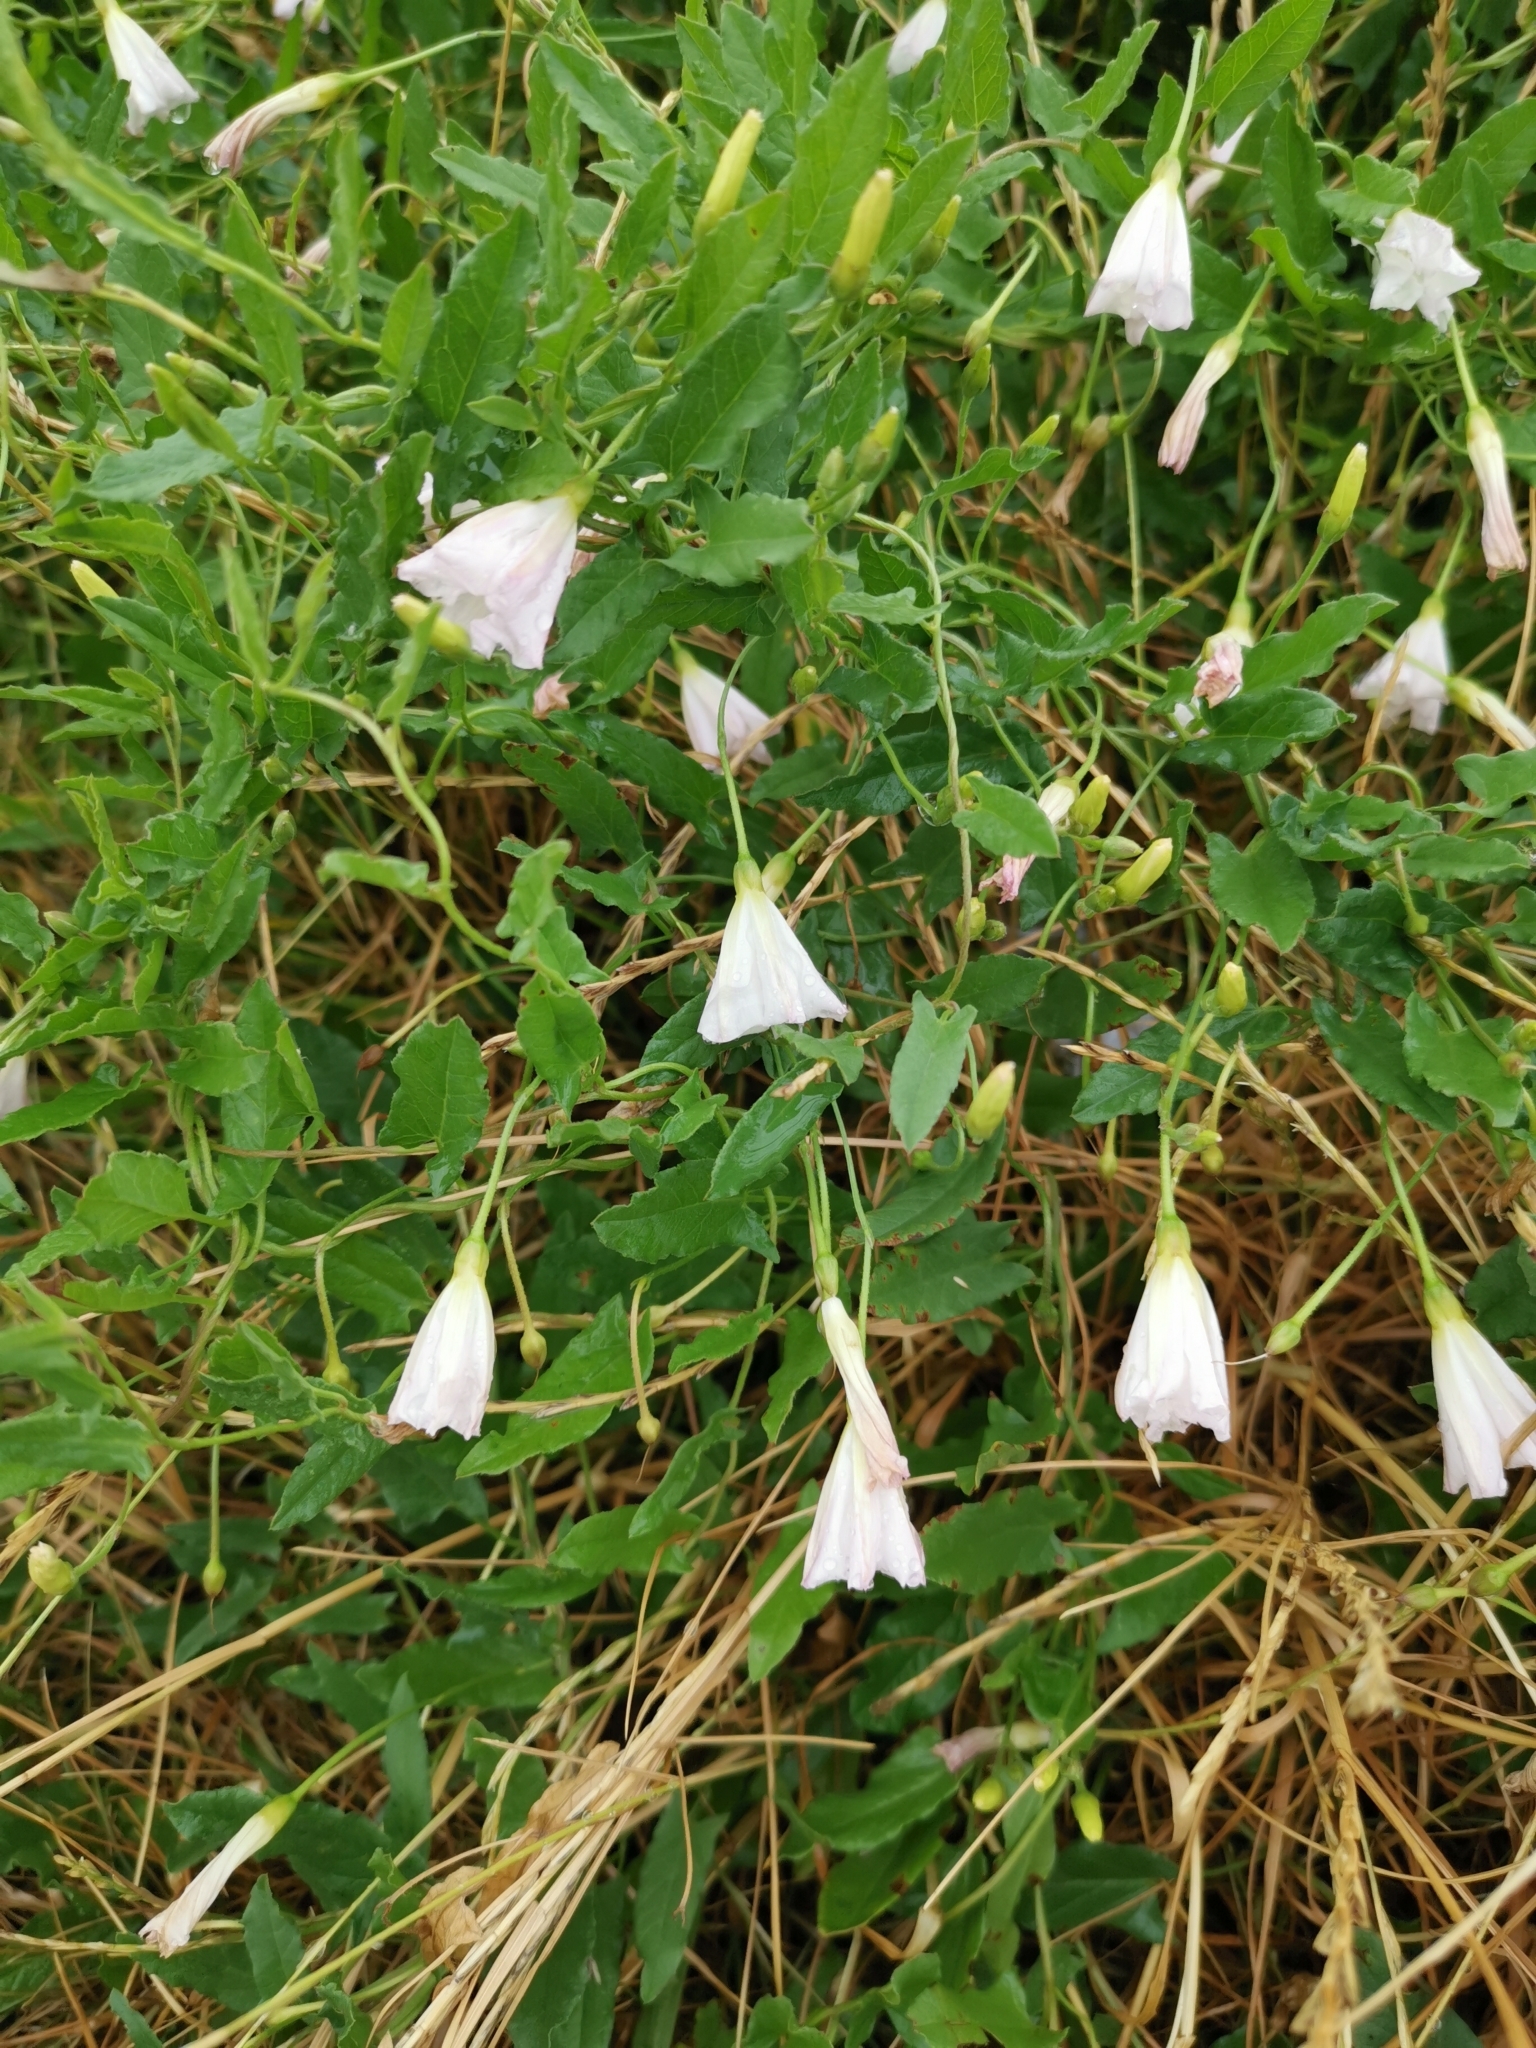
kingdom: Plantae
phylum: Tracheophyta
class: Magnoliopsida
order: Solanales
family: Convolvulaceae
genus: Convolvulus
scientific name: Convolvulus arvensis
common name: Field bindweed
